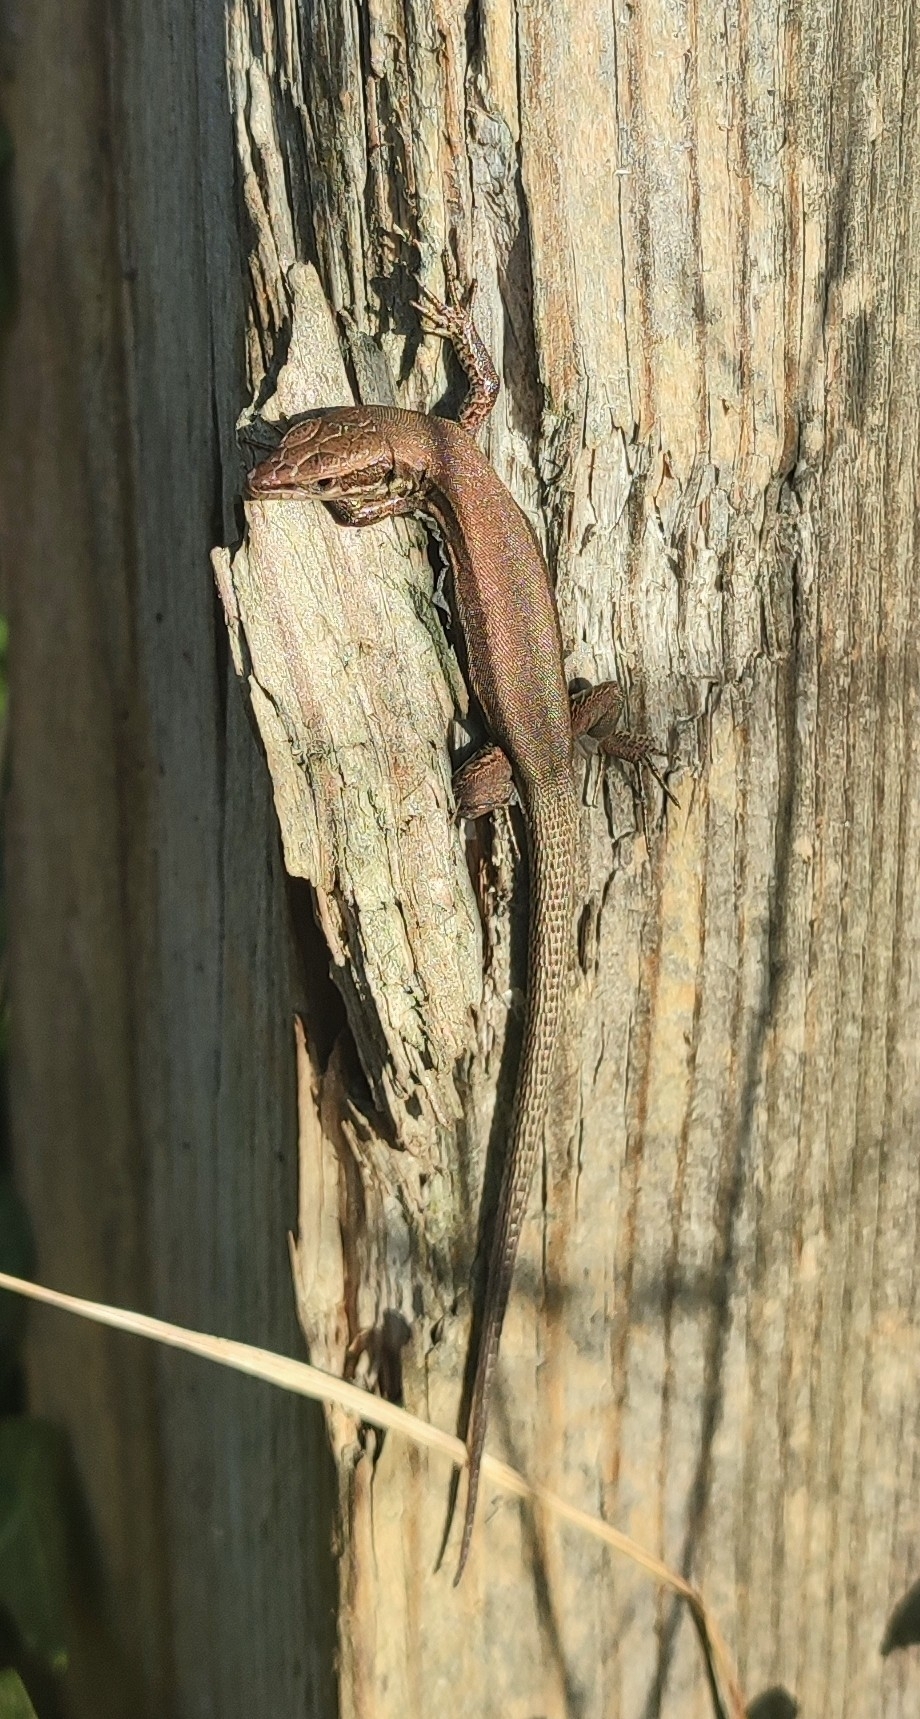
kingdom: Animalia
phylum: Chordata
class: Squamata
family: Lacertidae
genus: Podarcis
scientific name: Podarcis muralis
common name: Common wall lizard
